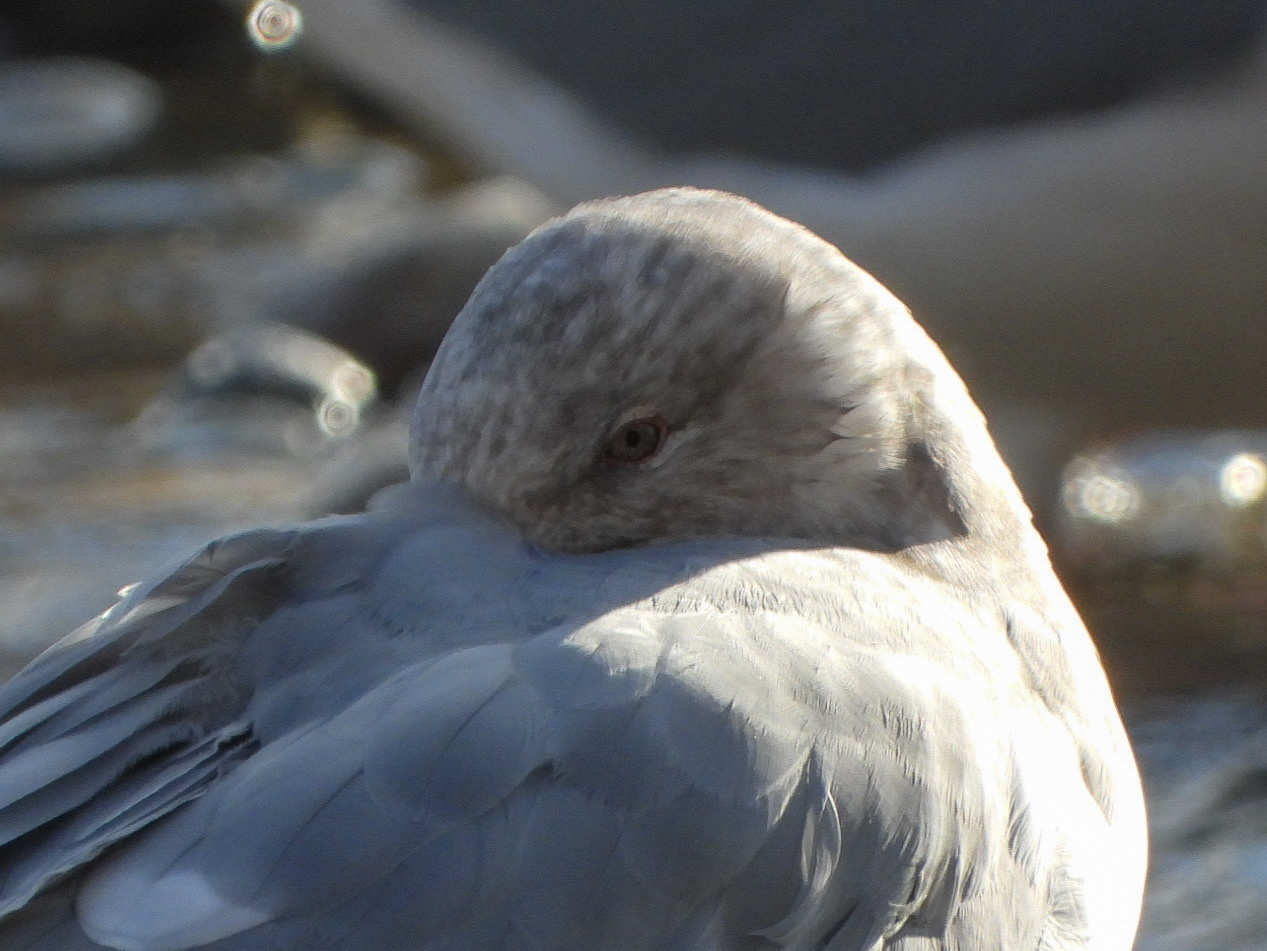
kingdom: Animalia
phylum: Chordata
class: Aves
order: Charadriiformes
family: Laridae
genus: Larus
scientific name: Larus
